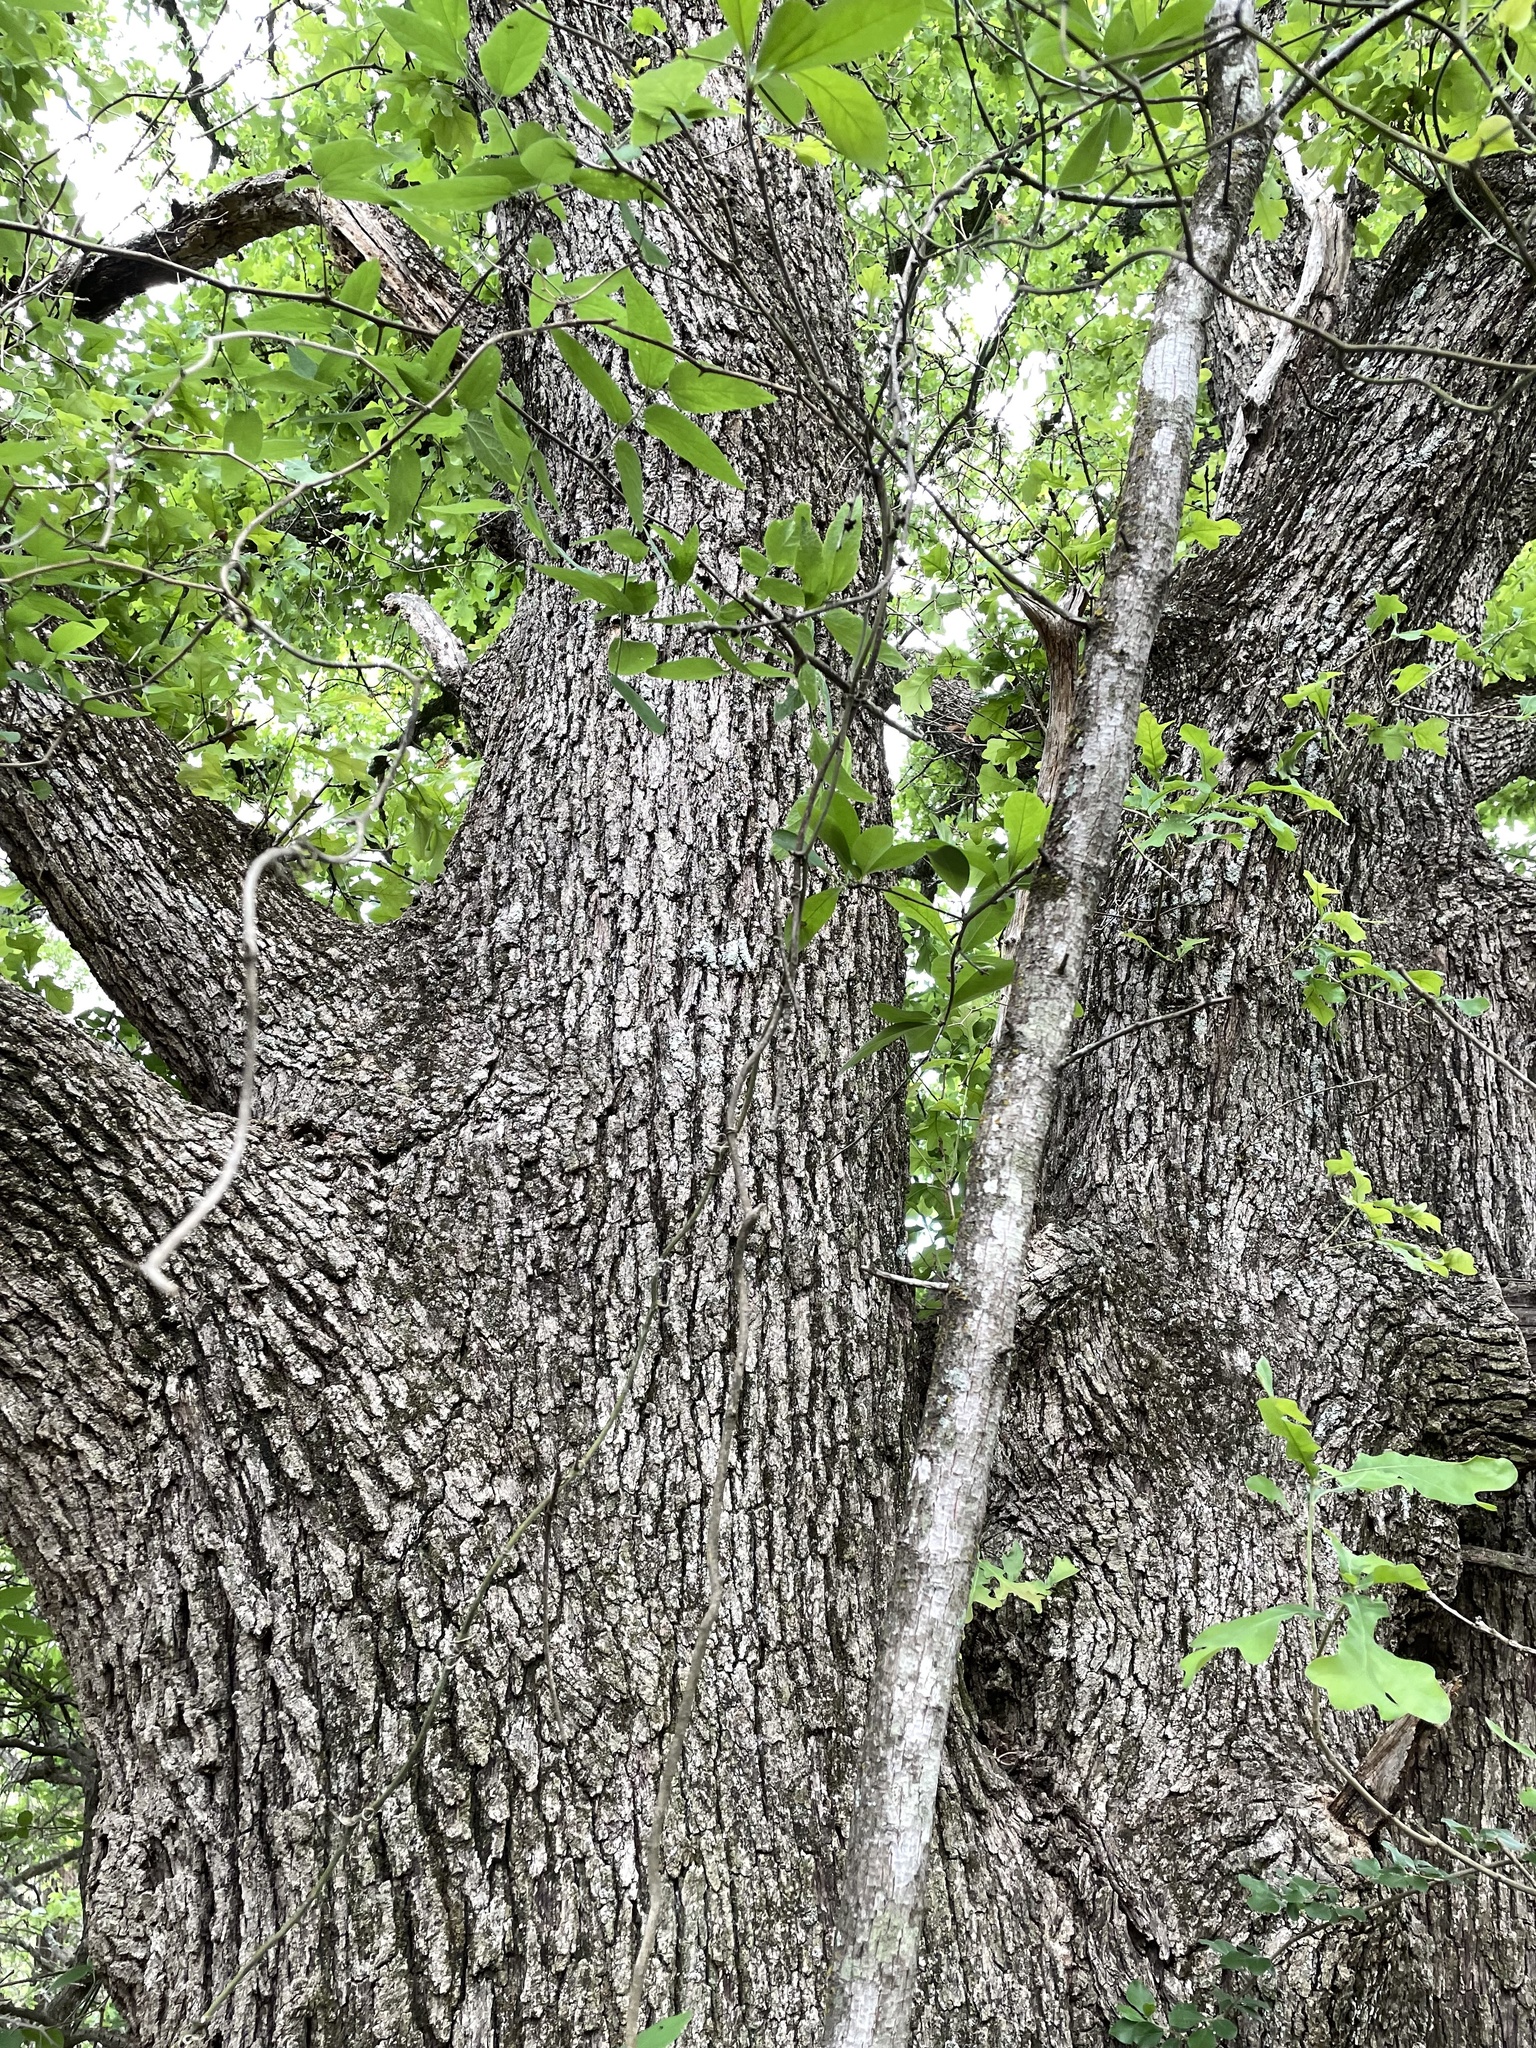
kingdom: Plantae
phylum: Tracheophyta
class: Magnoliopsida
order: Fagales
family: Fagaceae
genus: Quercus
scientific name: Quercus stellata
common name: Post oak
